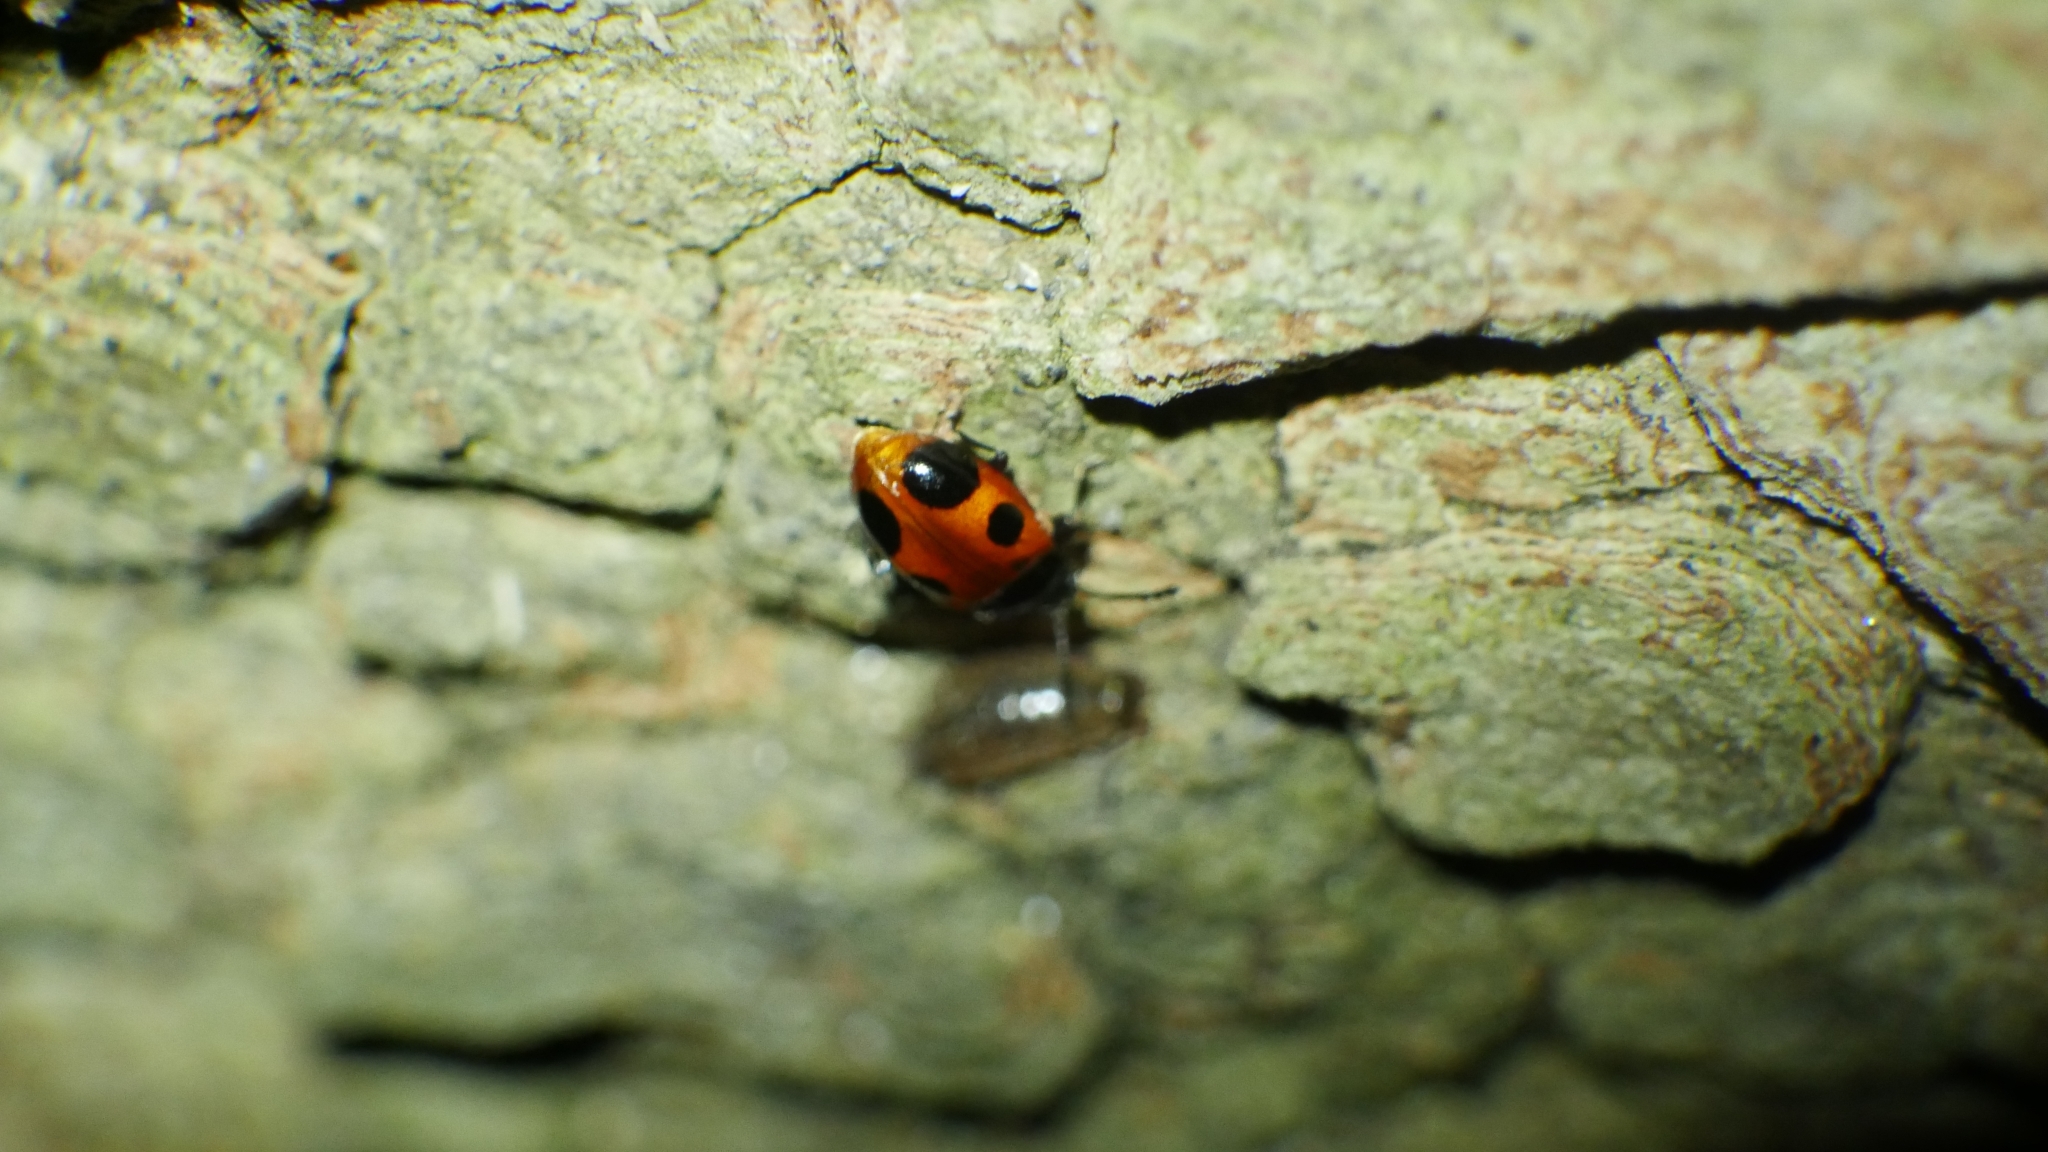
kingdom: Animalia
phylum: Arthropoda
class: Insecta
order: Coleoptera
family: Endomychidae
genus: Endomychus
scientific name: Endomychus biguttatus
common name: Handsome fungus beetle
